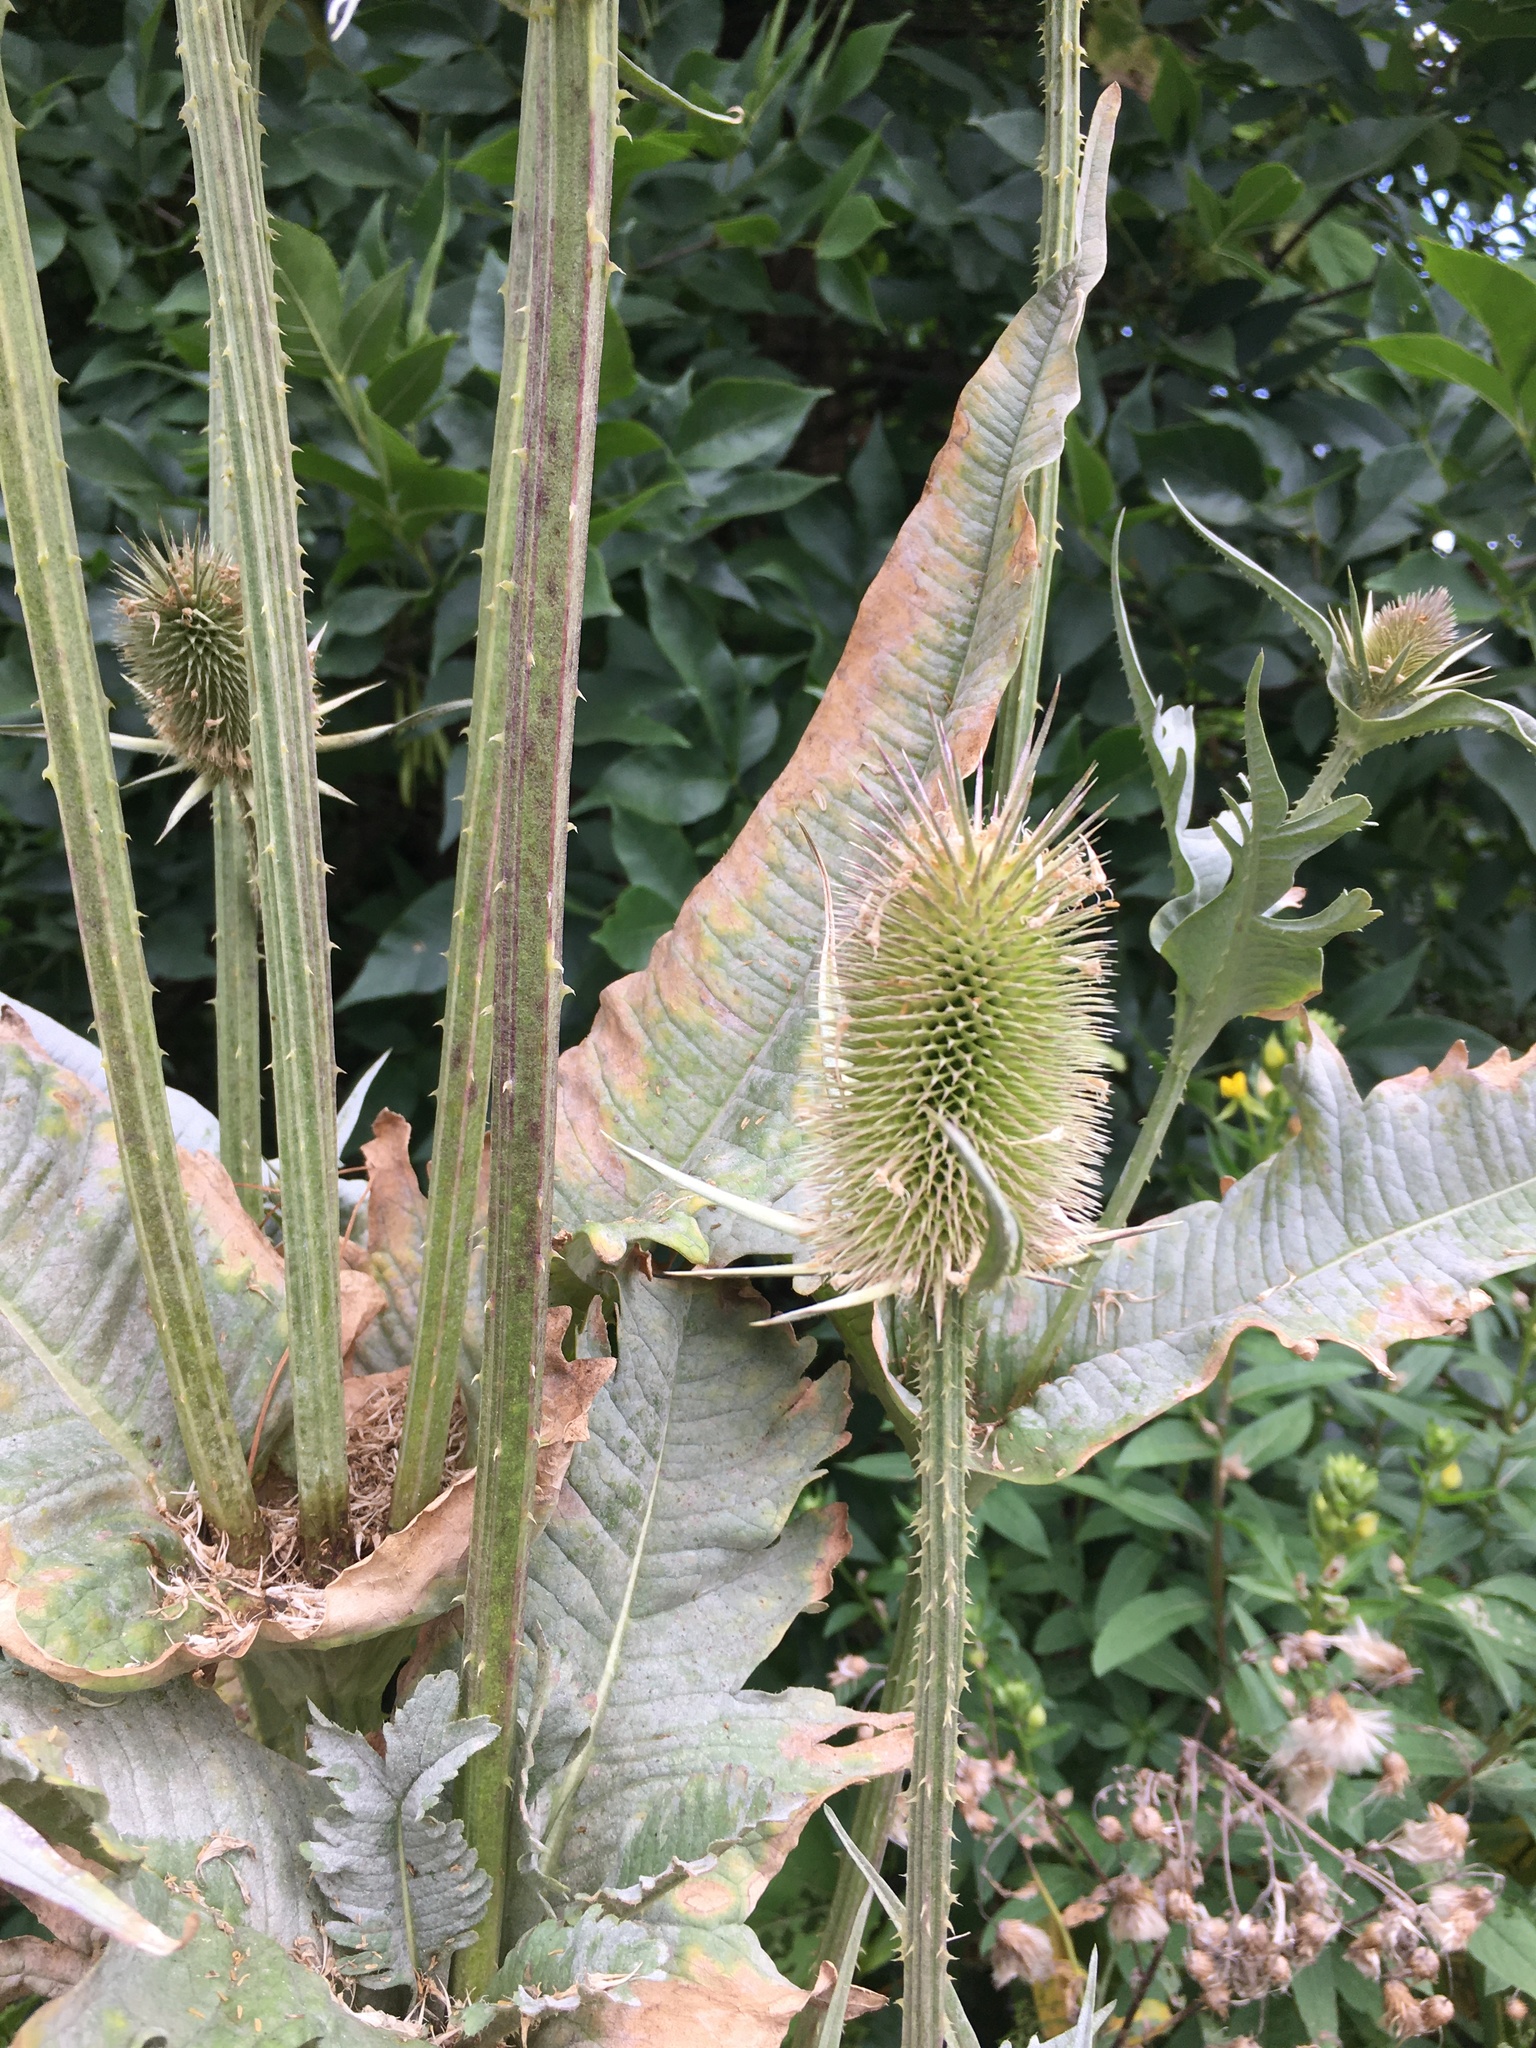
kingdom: Plantae
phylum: Tracheophyta
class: Magnoliopsida
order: Dipsacales
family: Caprifoliaceae
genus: Dipsacus
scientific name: Dipsacus laciniatus
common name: Cut-leaved teasel
